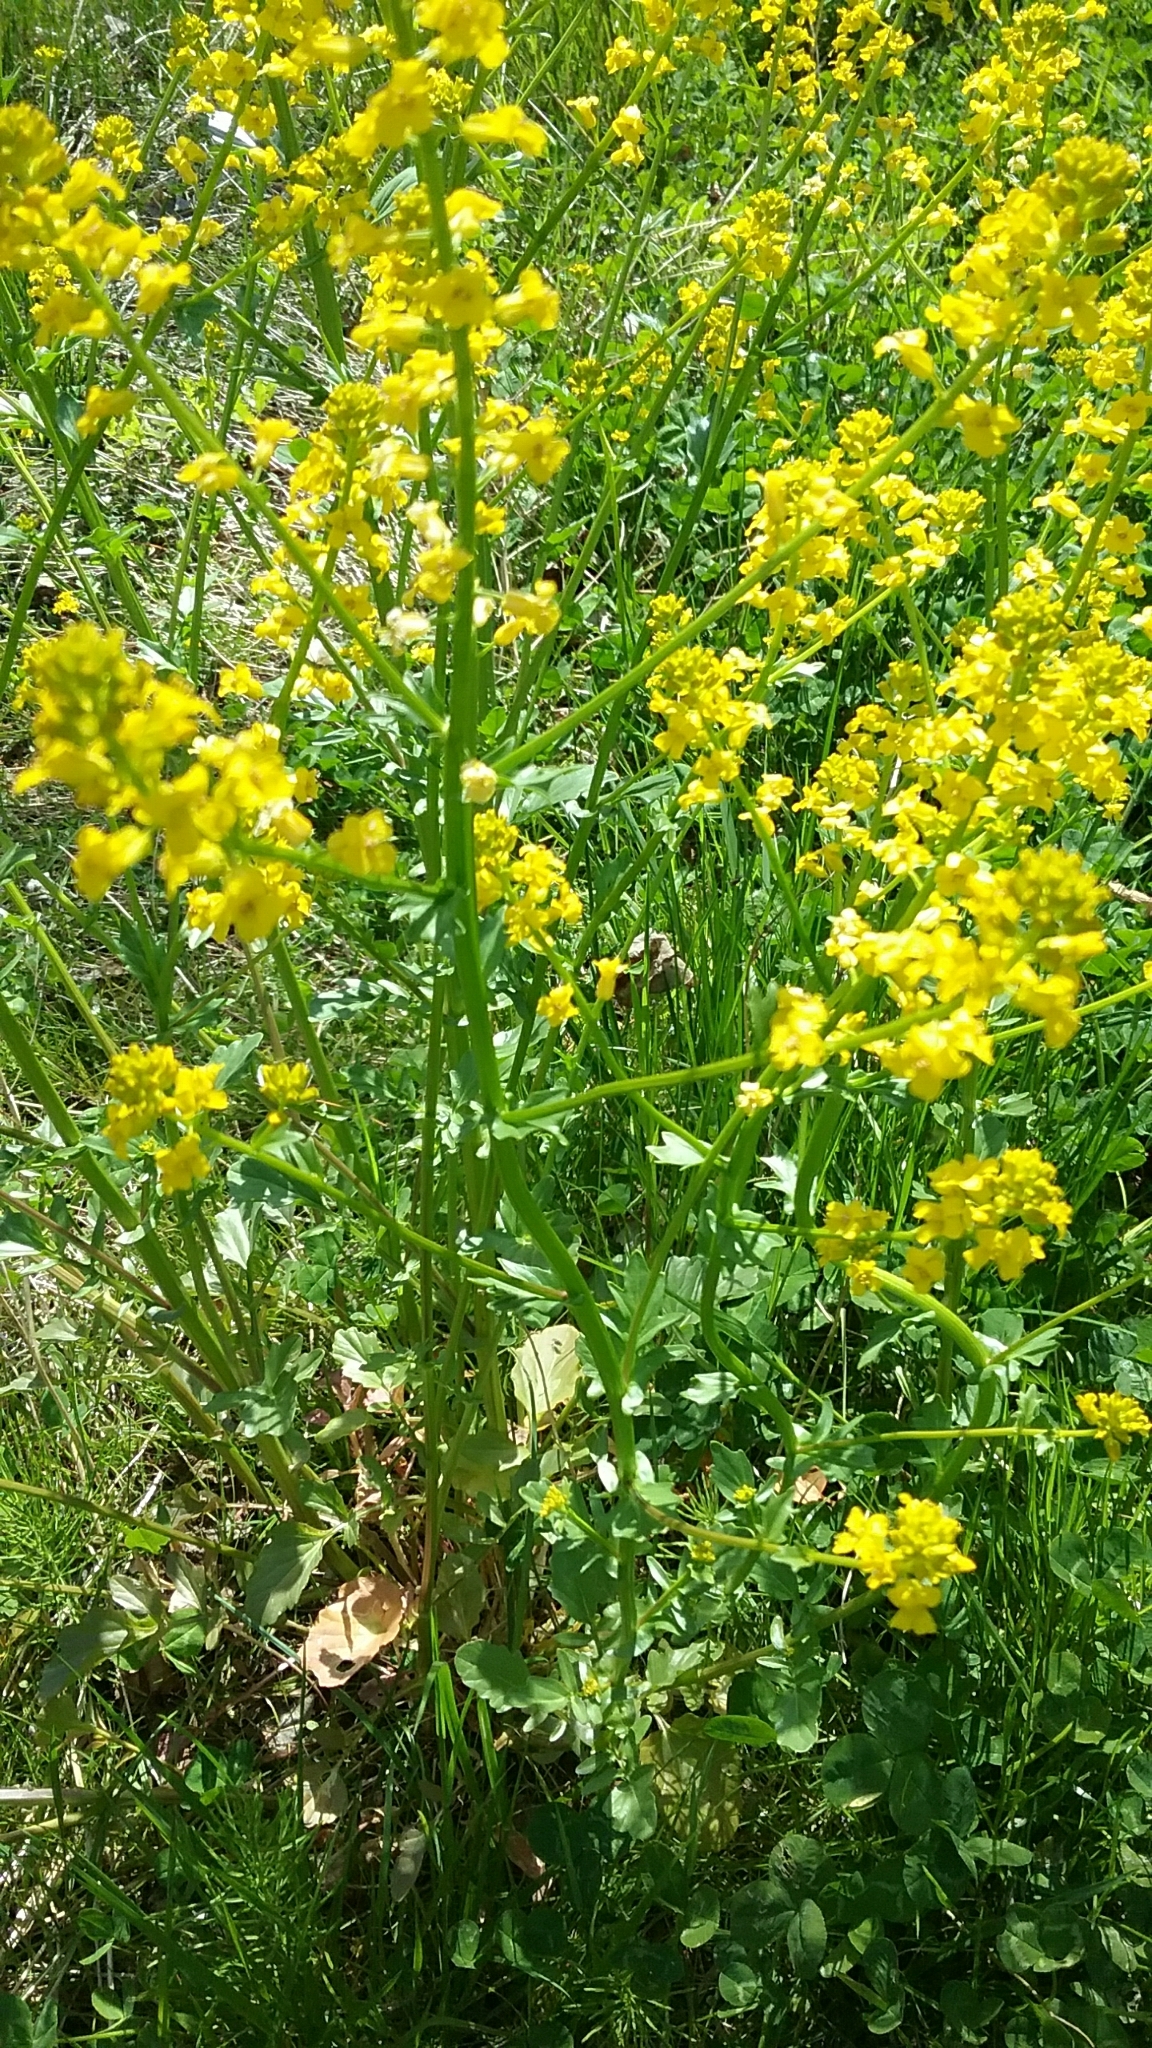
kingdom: Plantae
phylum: Tracheophyta
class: Magnoliopsida
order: Brassicales
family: Brassicaceae
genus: Barbarea
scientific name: Barbarea vulgaris
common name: Cressy-greens
